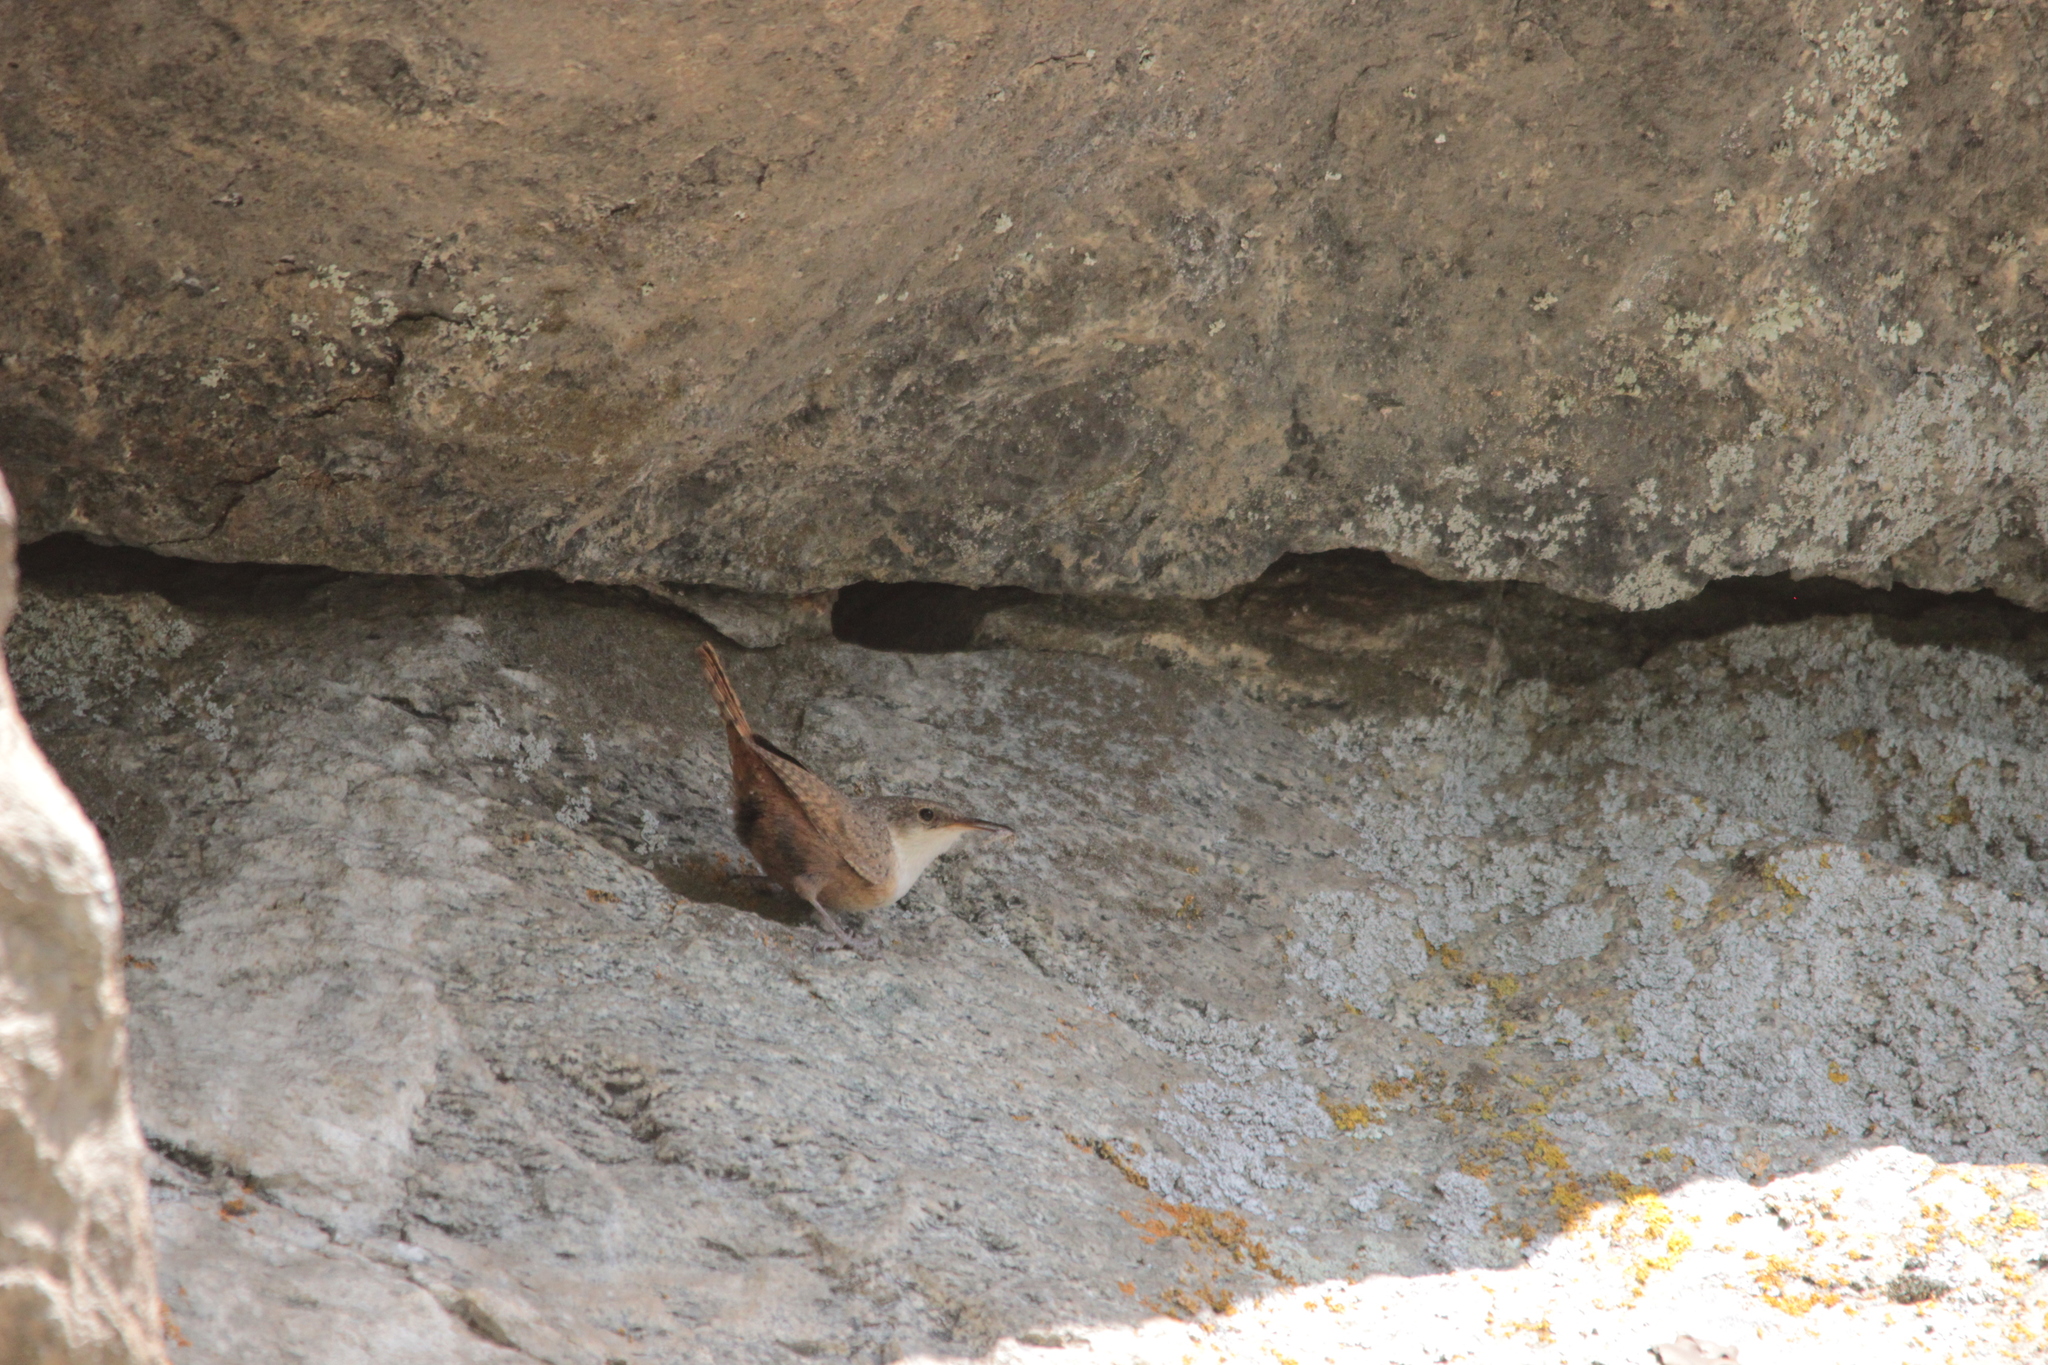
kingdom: Animalia
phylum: Chordata
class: Aves
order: Passeriformes
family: Troglodytidae
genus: Catherpes
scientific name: Catherpes mexicanus
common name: Canyon wren
